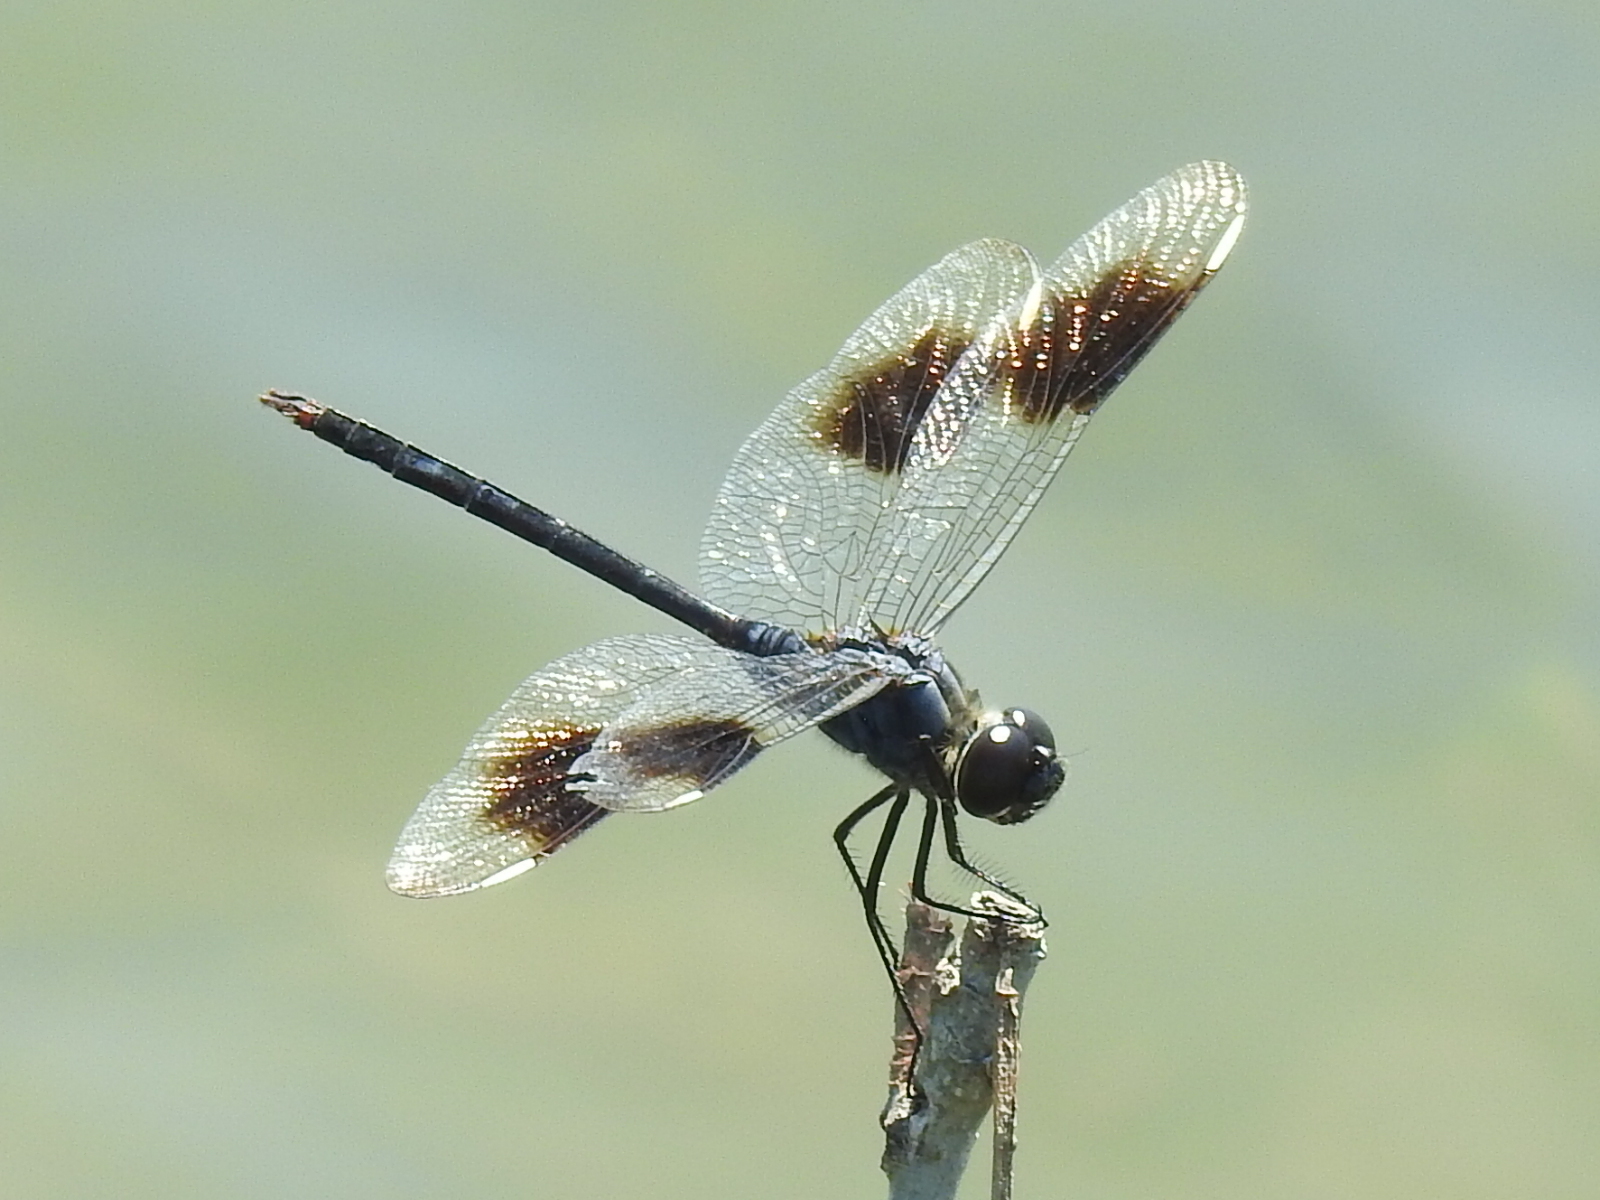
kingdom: Animalia
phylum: Arthropoda
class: Insecta
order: Odonata
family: Libellulidae
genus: Brachymesia
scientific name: Brachymesia gravida
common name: Four-spotted pennant
